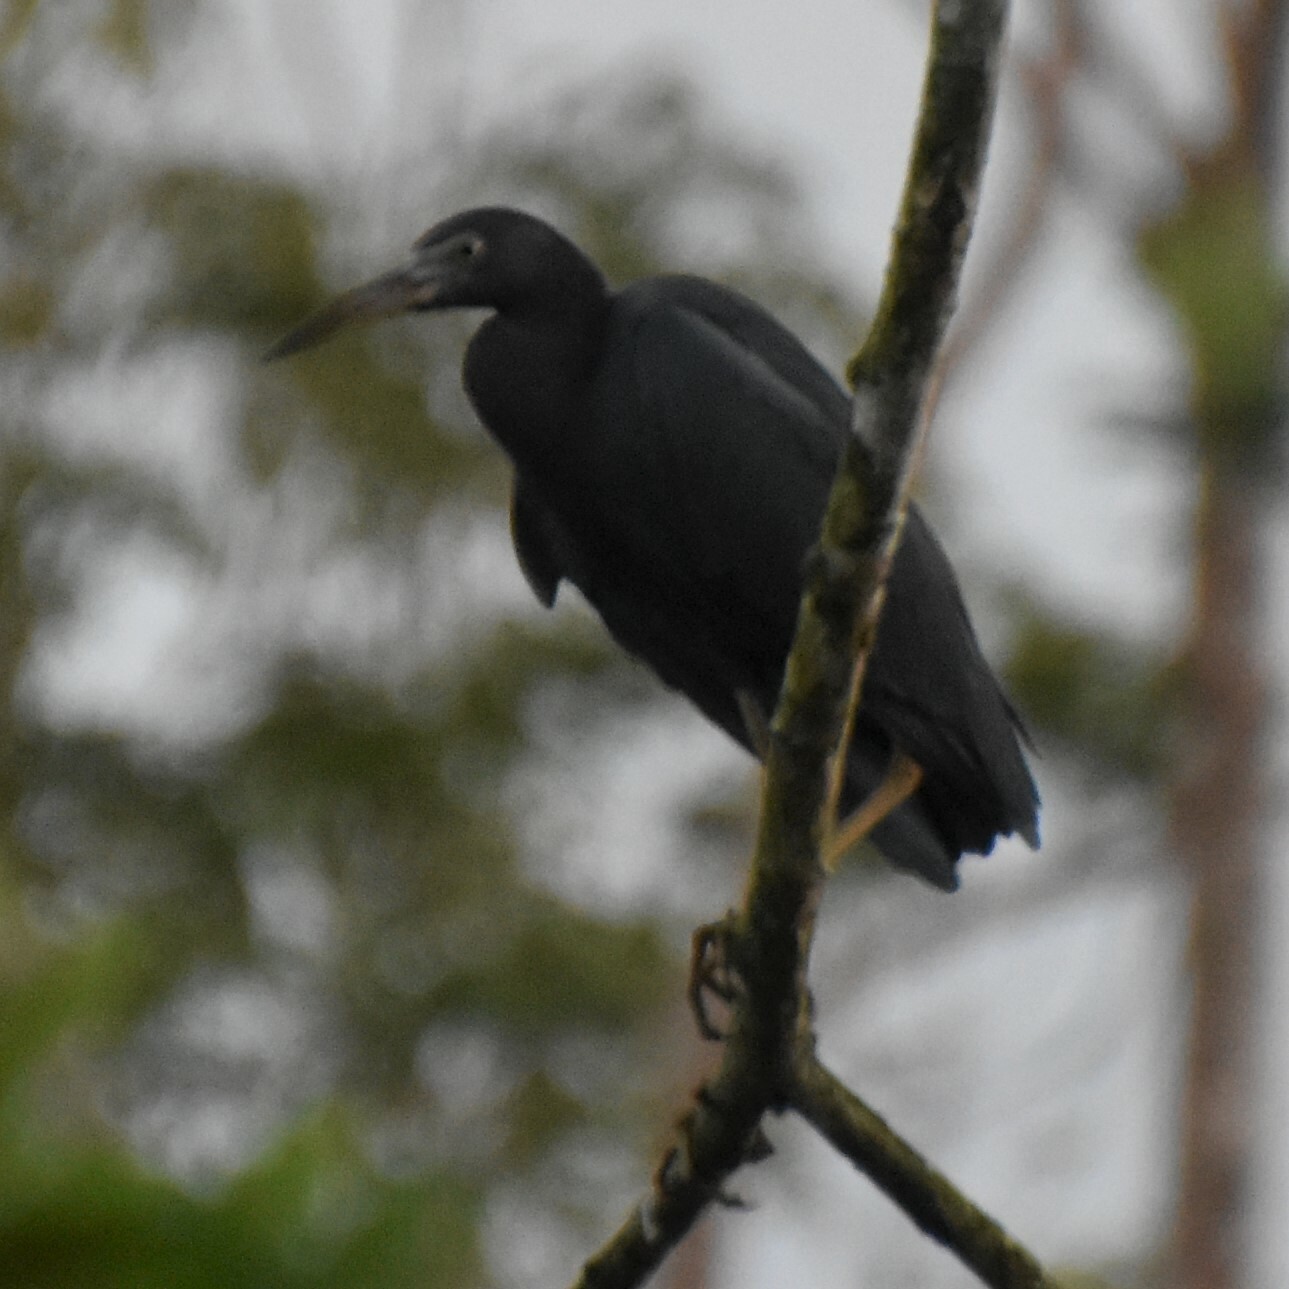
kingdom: Animalia
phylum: Chordata
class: Aves
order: Pelecaniformes
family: Ardeidae
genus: Egretta
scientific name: Egretta caerulea
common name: Little blue heron
